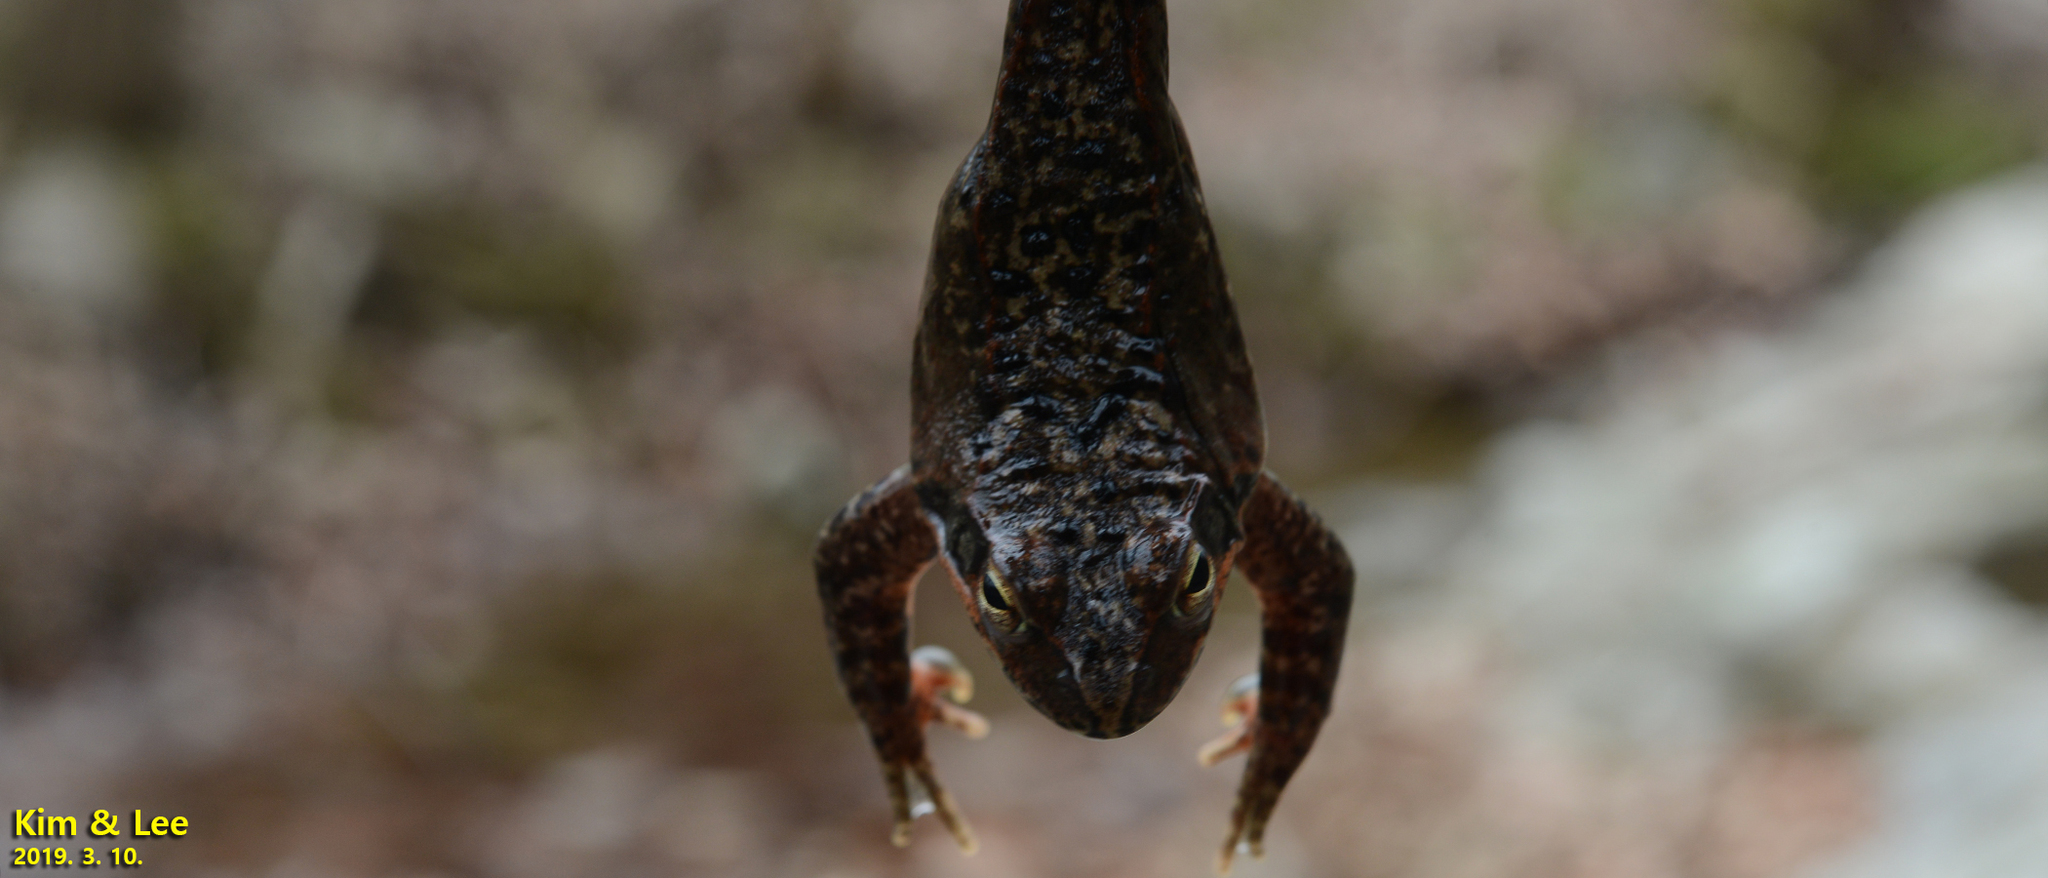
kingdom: Animalia
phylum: Chordata
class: Amphibia
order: Anura
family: Ranidae
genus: Rana
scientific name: Rana dybowskii
